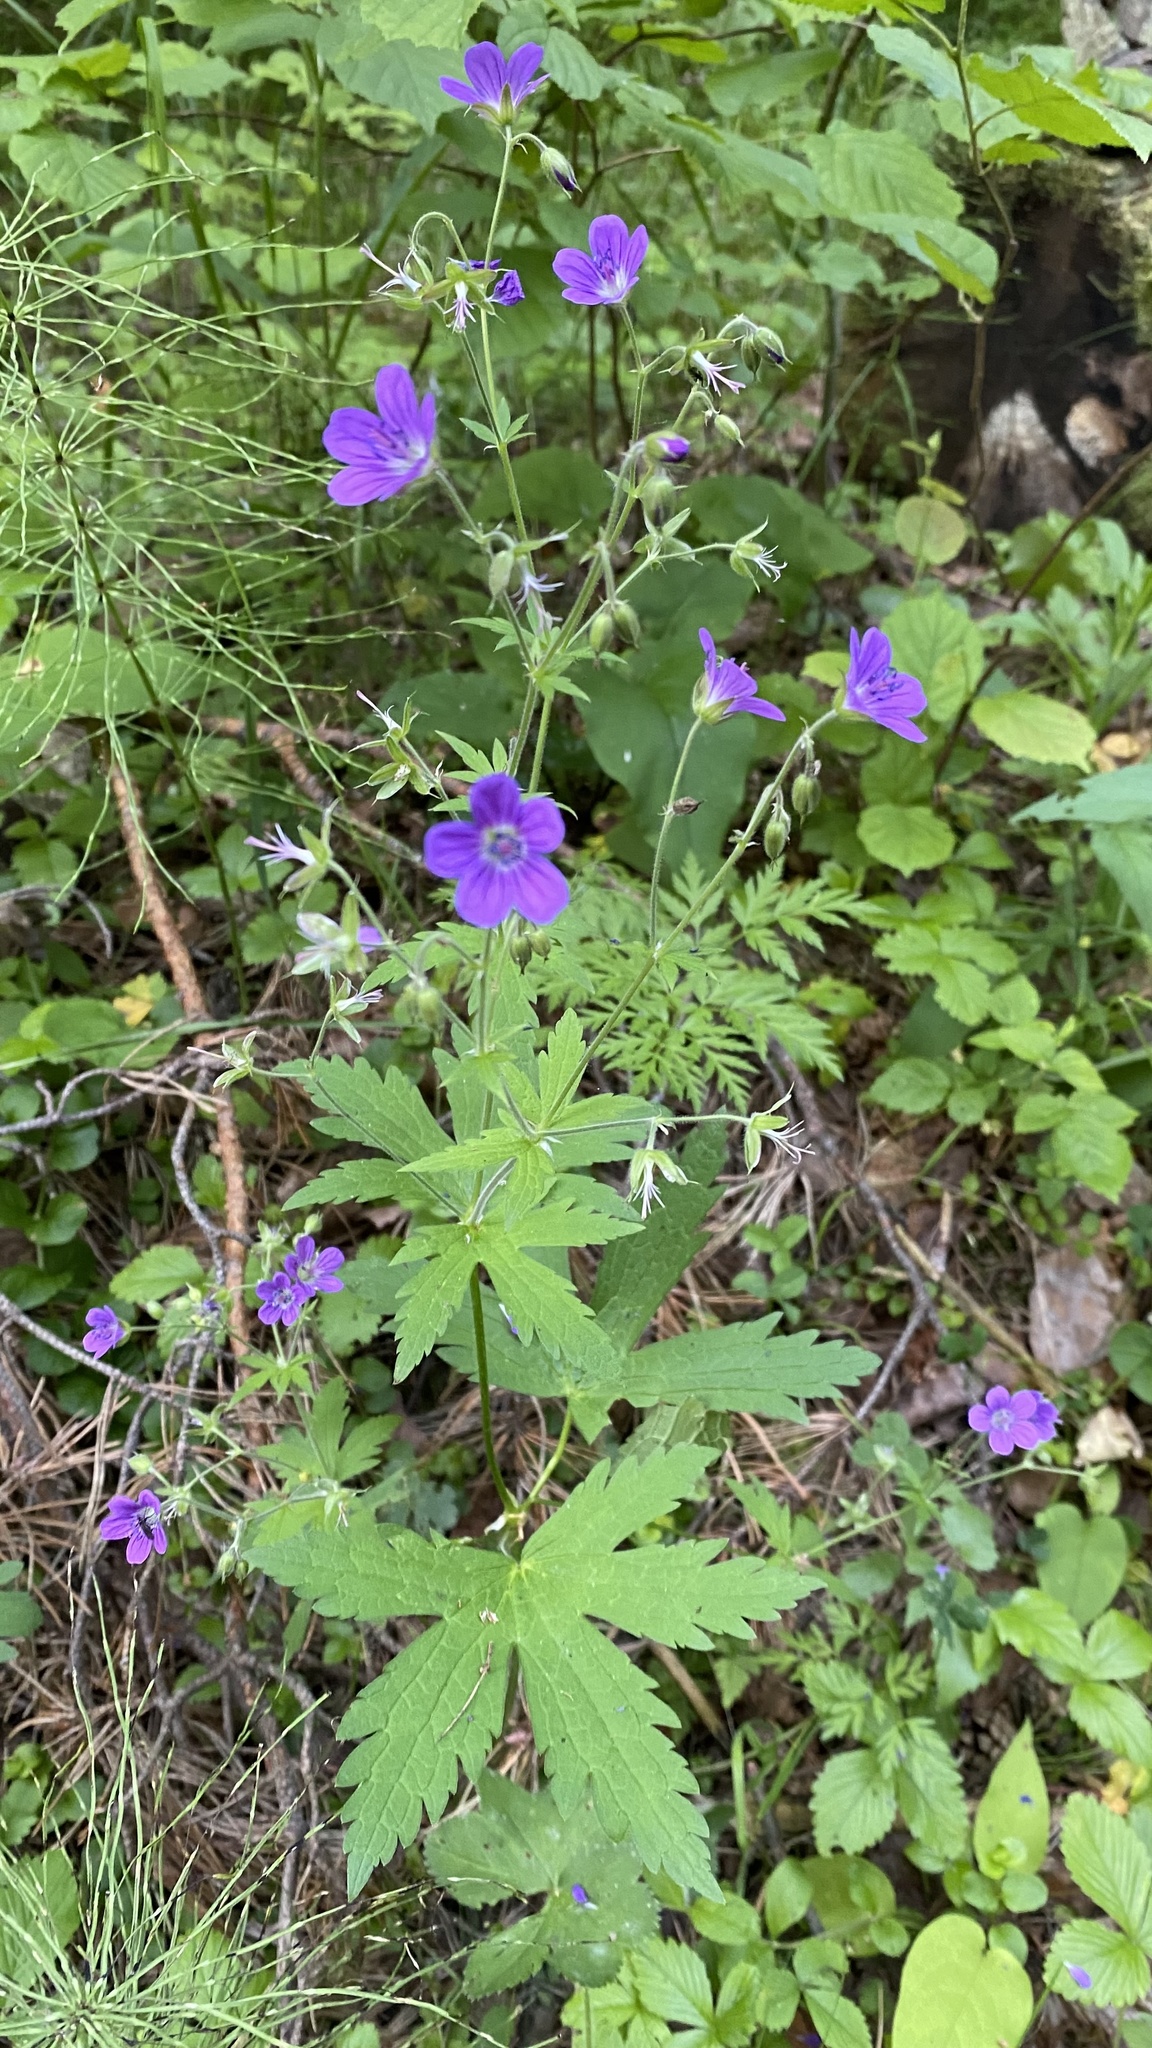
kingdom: Plantae
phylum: Tracheophyta
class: Magnoliopsida
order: Geraniales
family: Geraniaceae
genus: Geranium
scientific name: Geranium sylvaticum
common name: Wood crane's-bill
